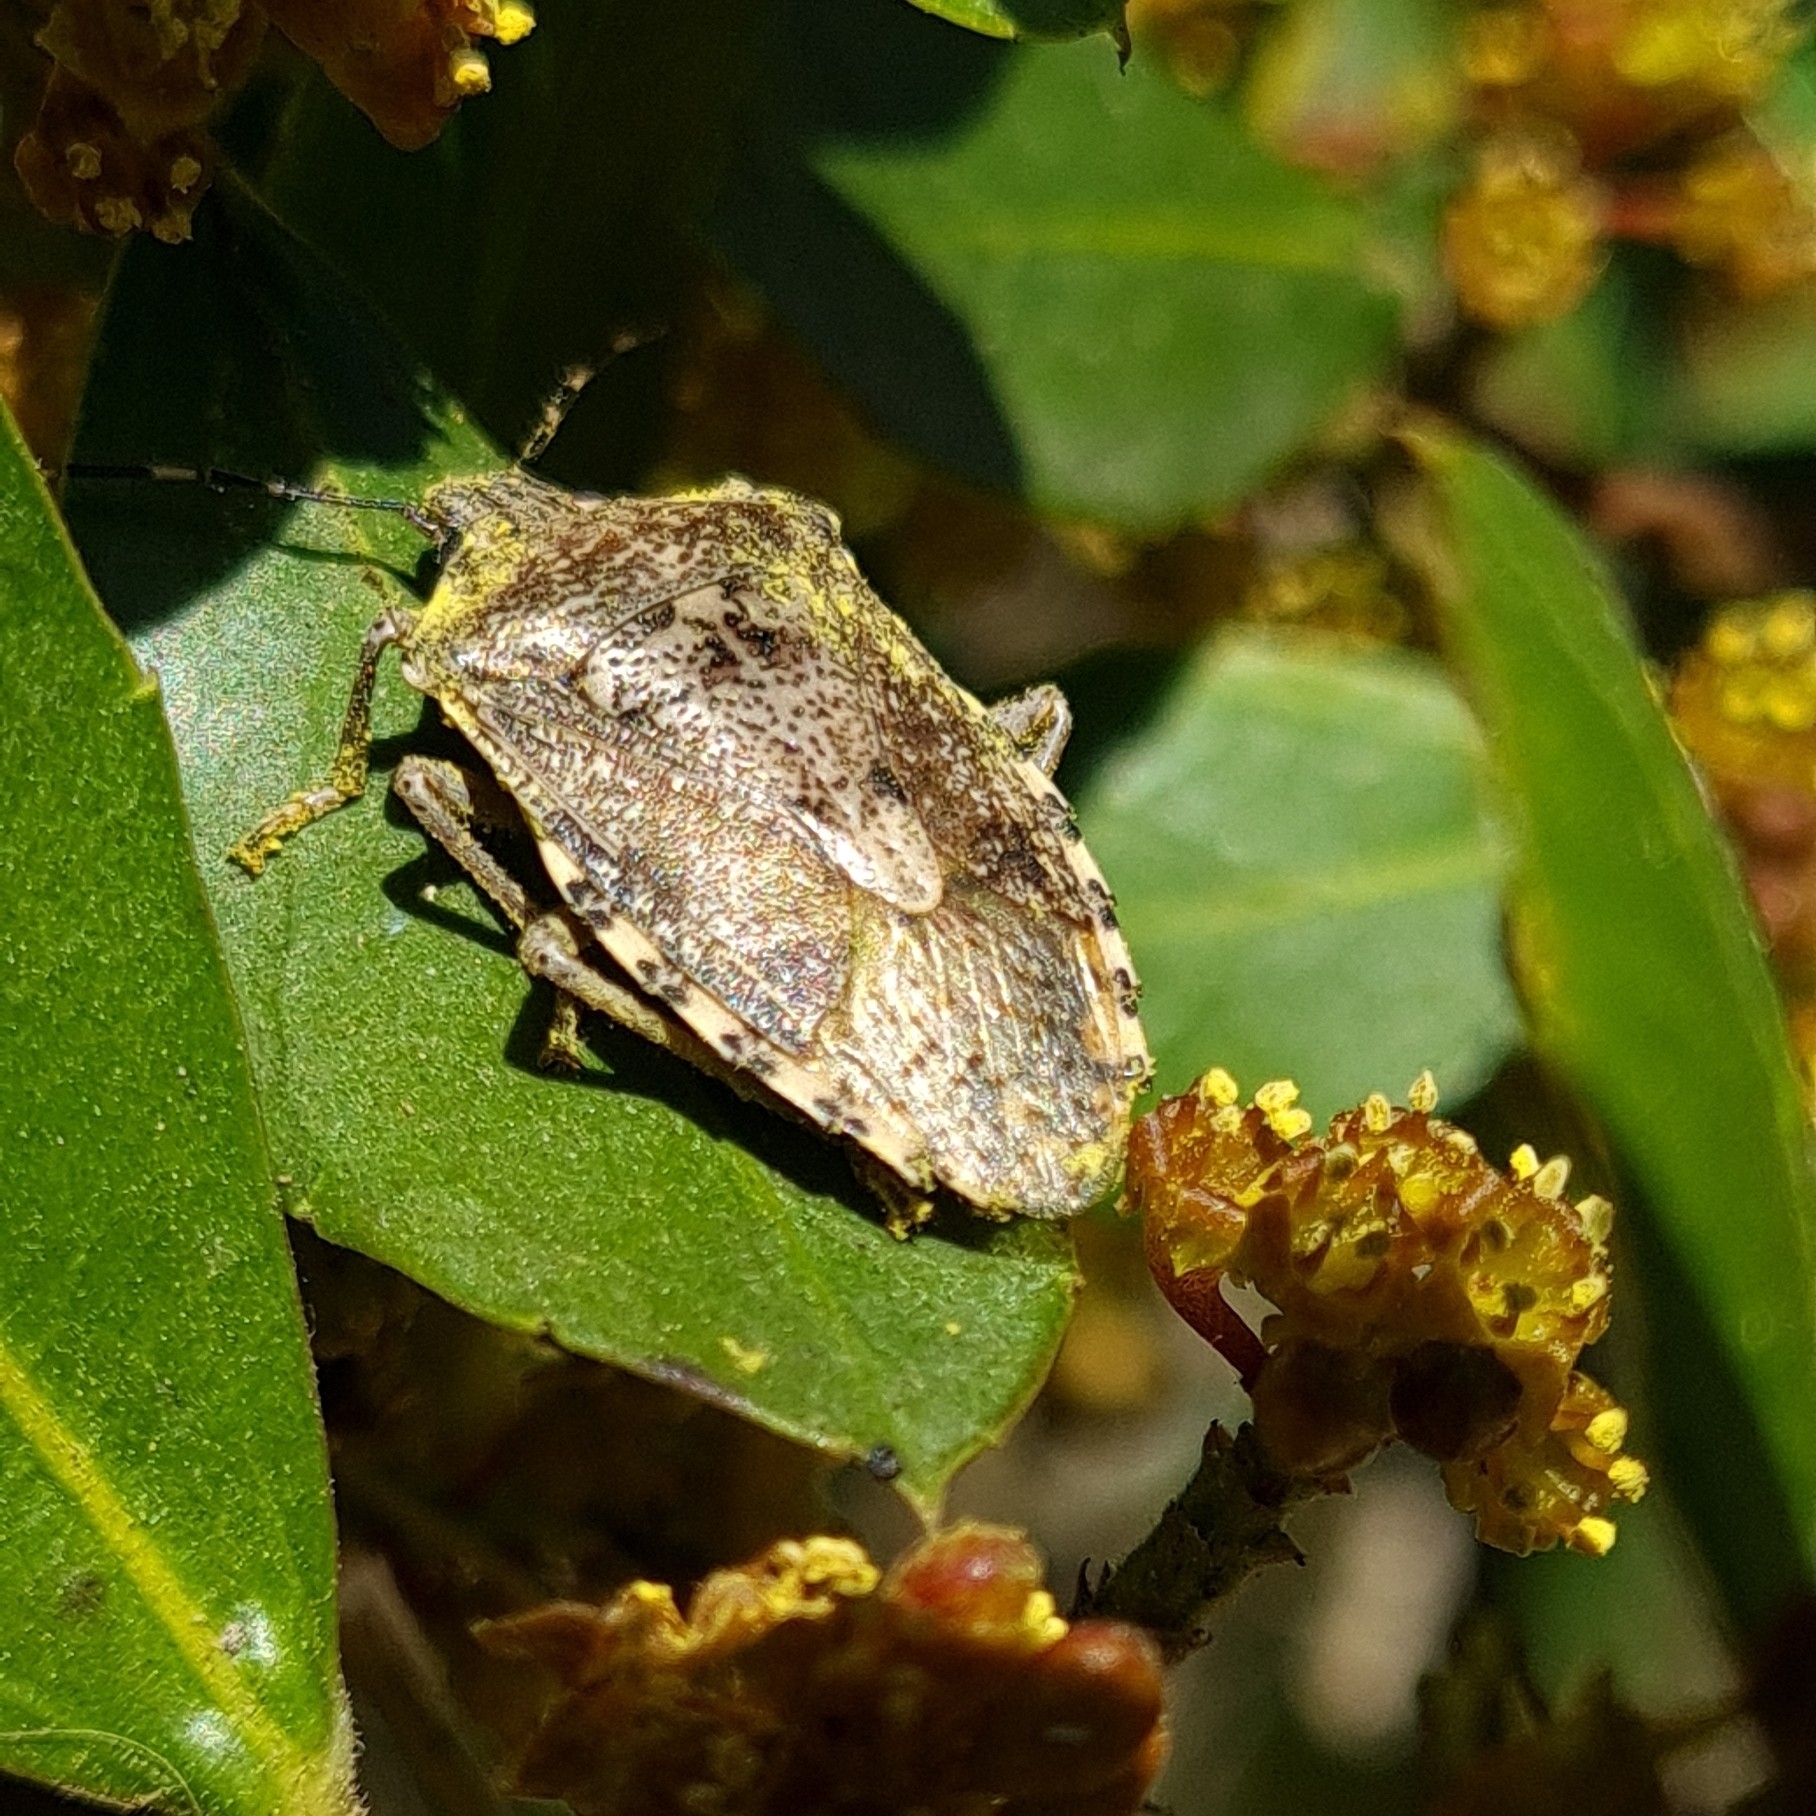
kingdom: Animalia
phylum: Arthropoda
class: Insecta
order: Hemiptera
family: Pentatomidae
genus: Rhaphigaster
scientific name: Rhaphigaster nebulosa
